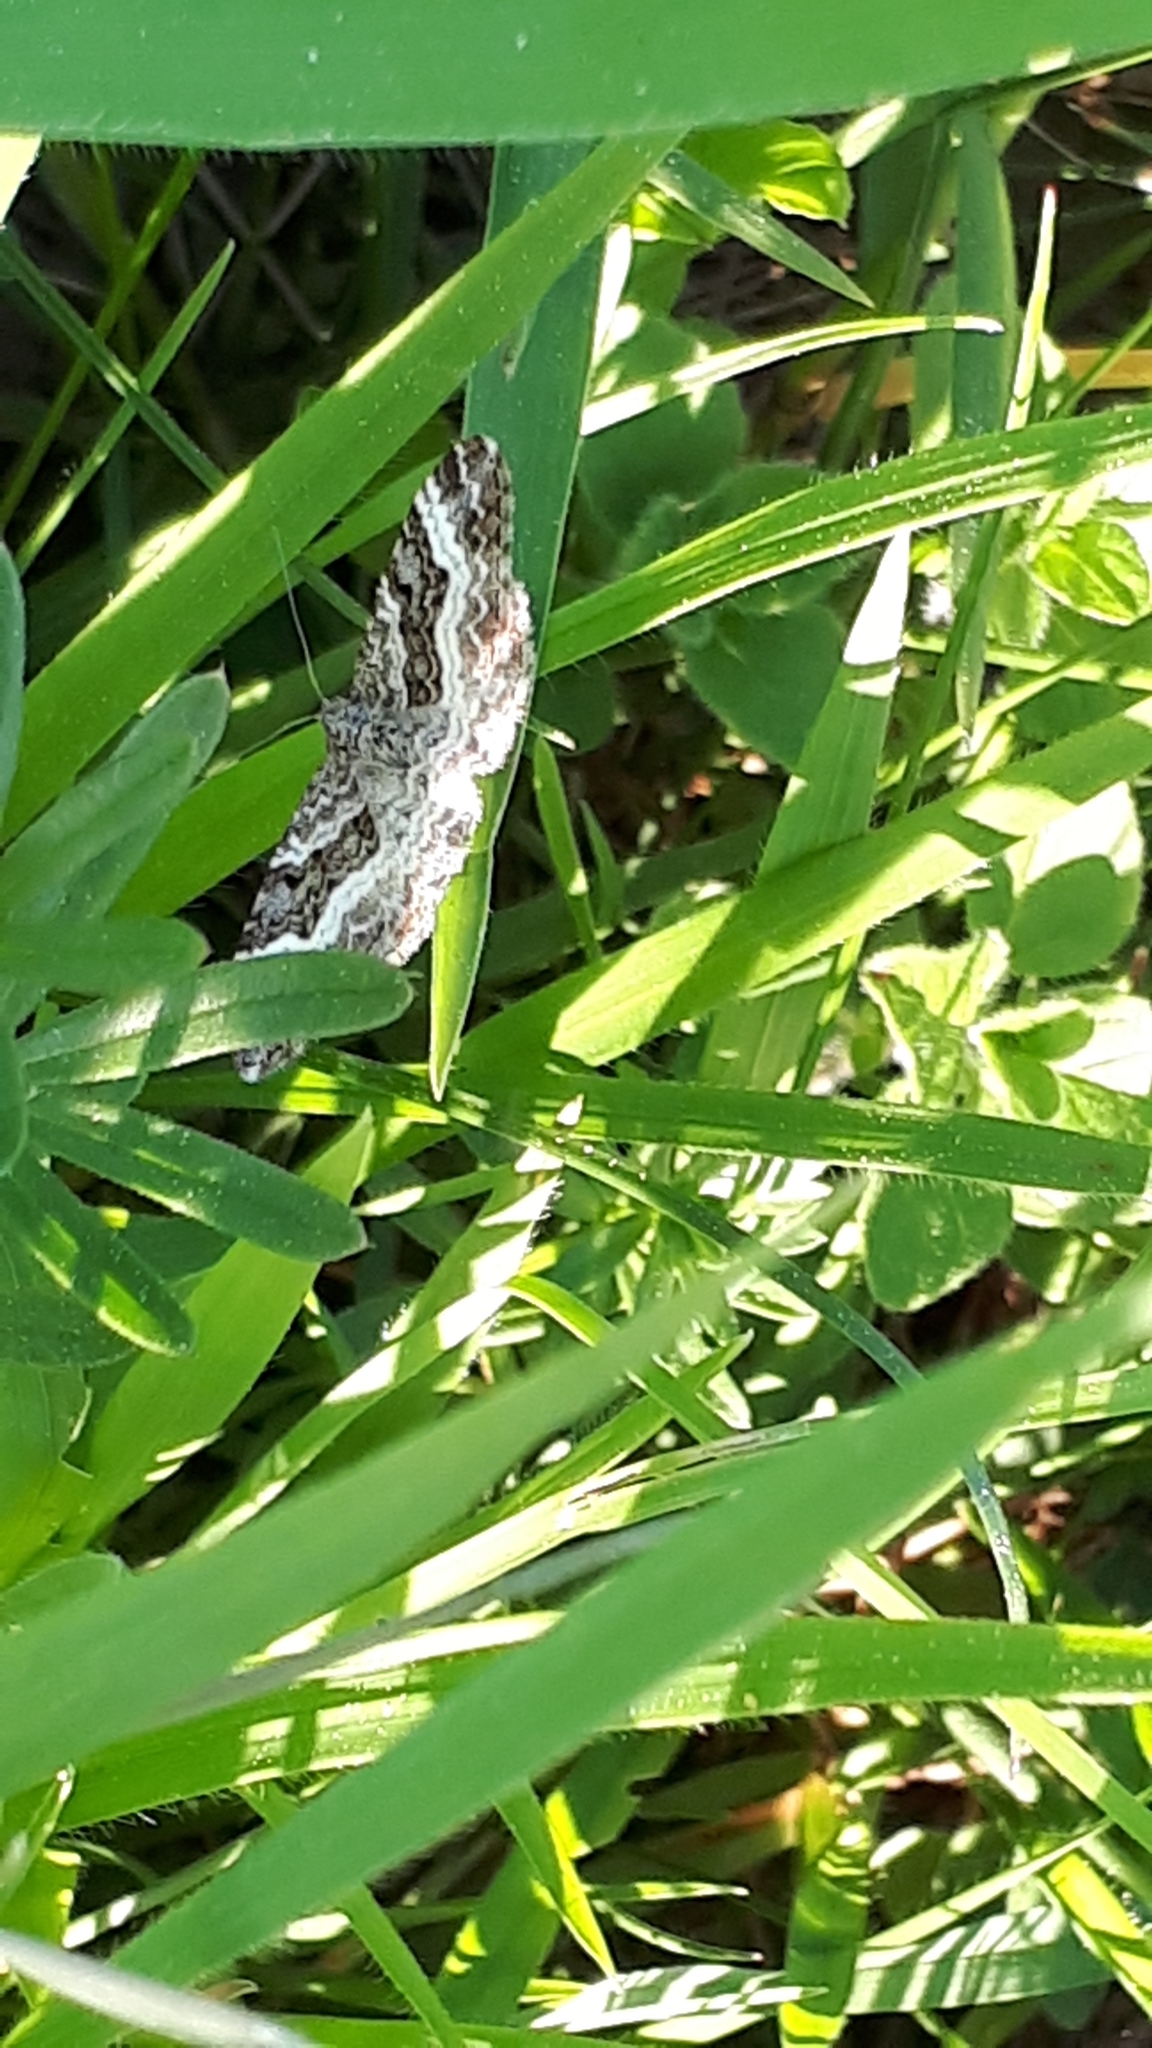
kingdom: Animalia
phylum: Arthropoda
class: Insecta
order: Lepidoptera
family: Geometridae
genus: Epirrhoe
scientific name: Epirrhoe alternata
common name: Common carpet
